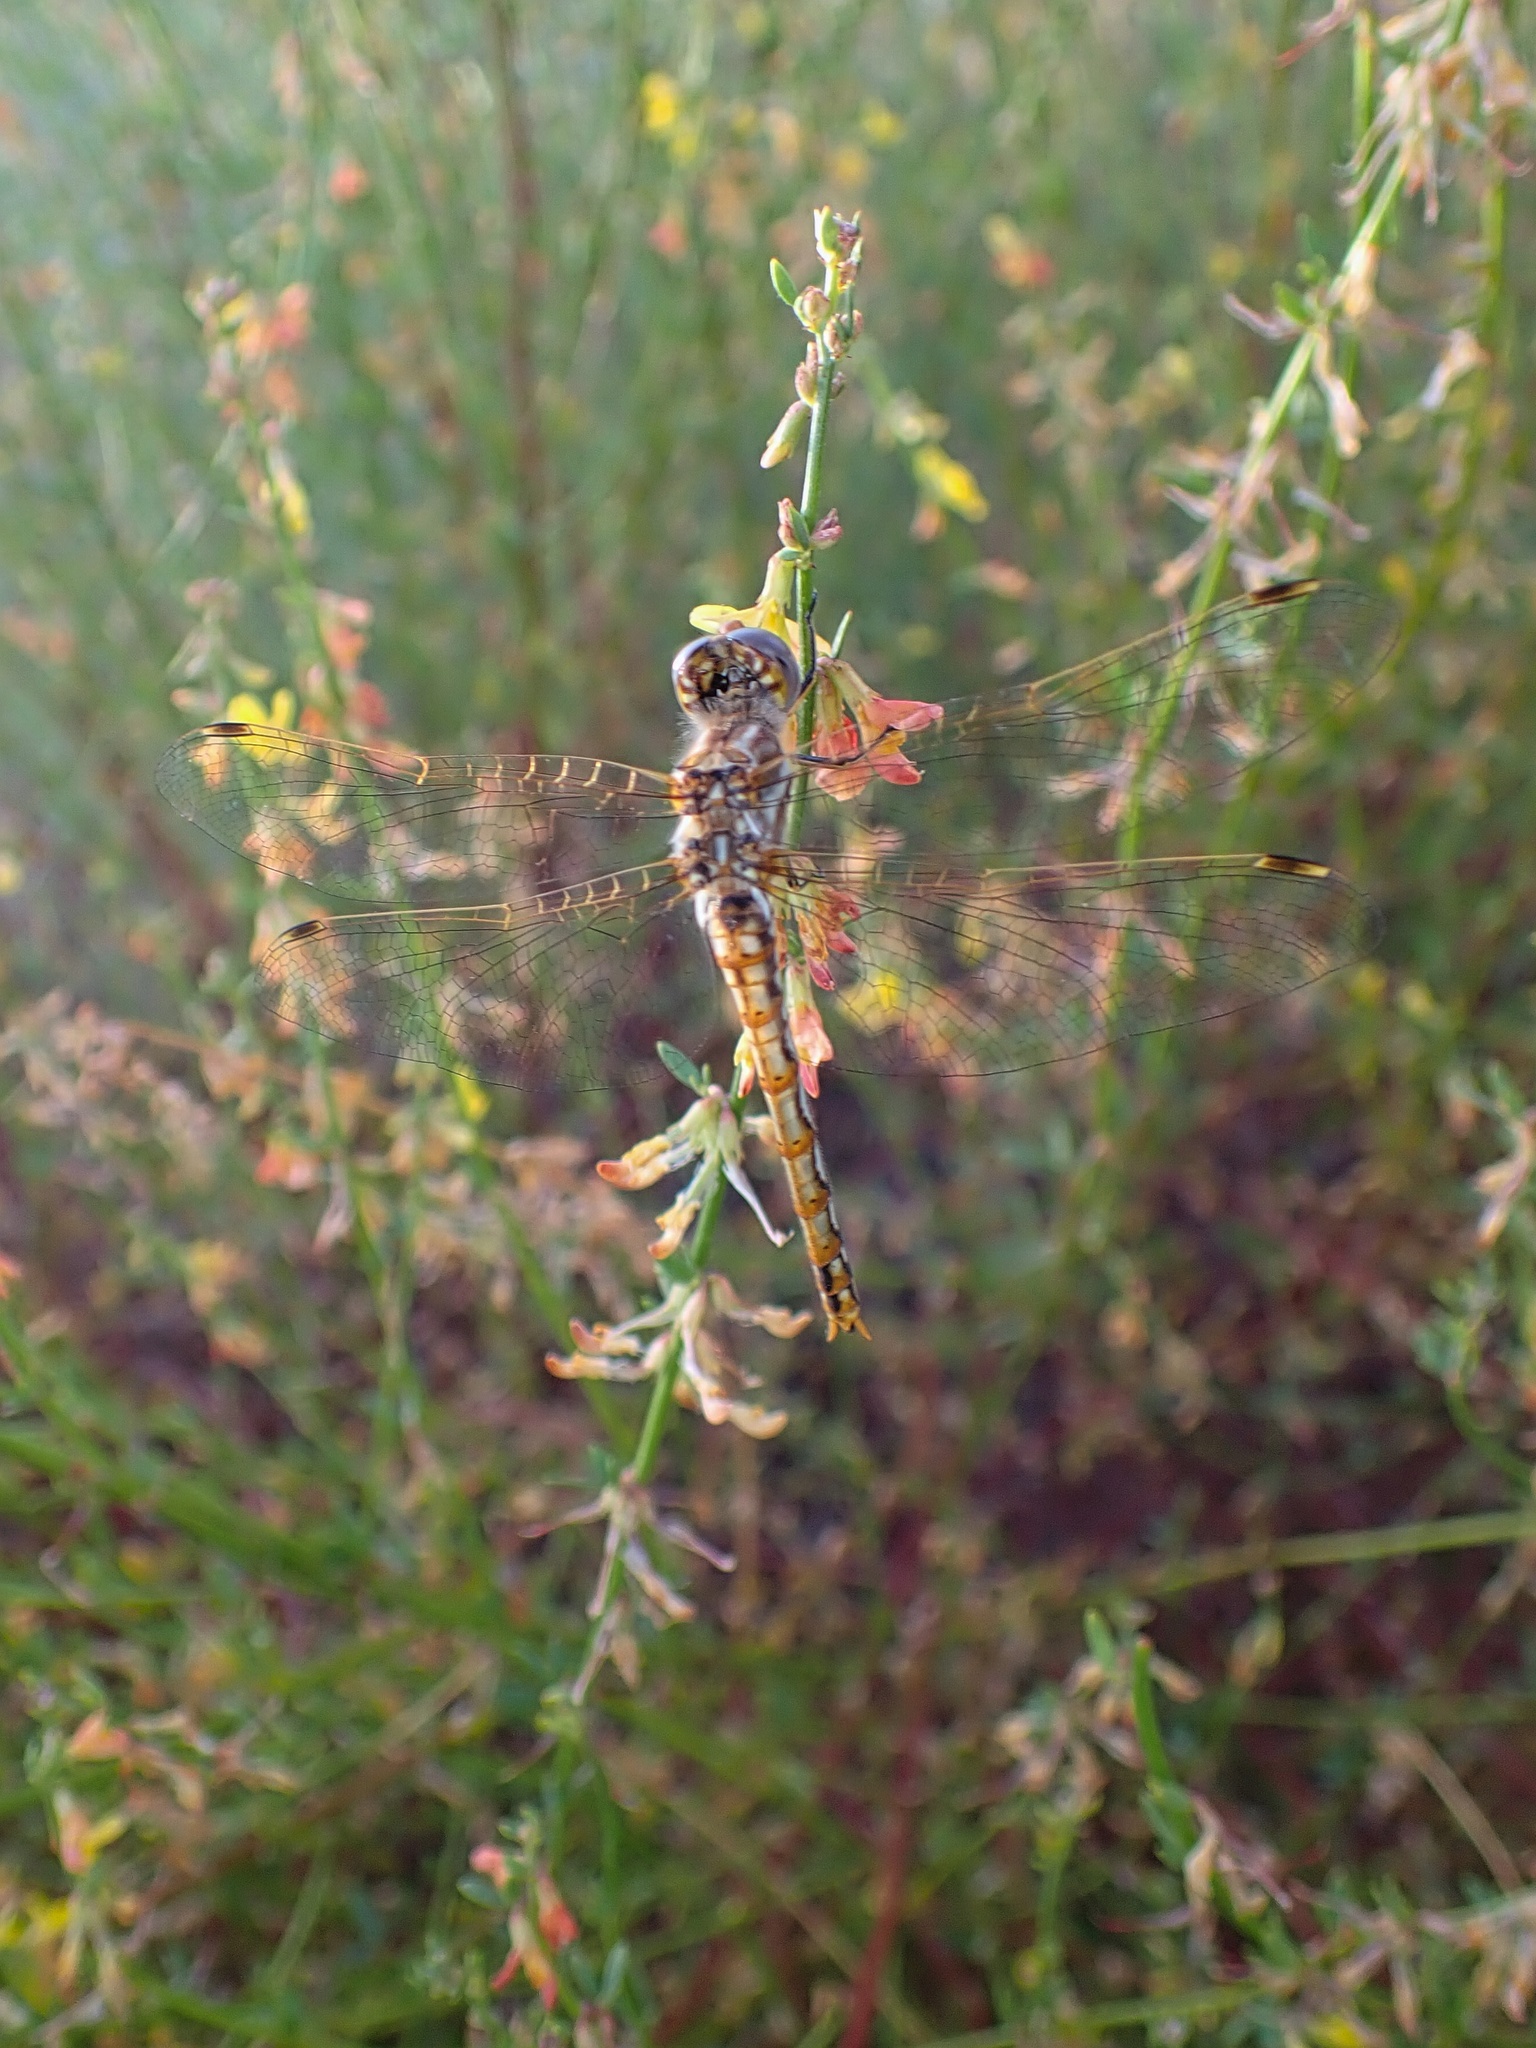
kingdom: Animalia
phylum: Arthropoda
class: Insecta
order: Odonata
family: Libellulidae
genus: Sympetrum
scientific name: Sympetrum corruptum
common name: Variegated meadowhawk
